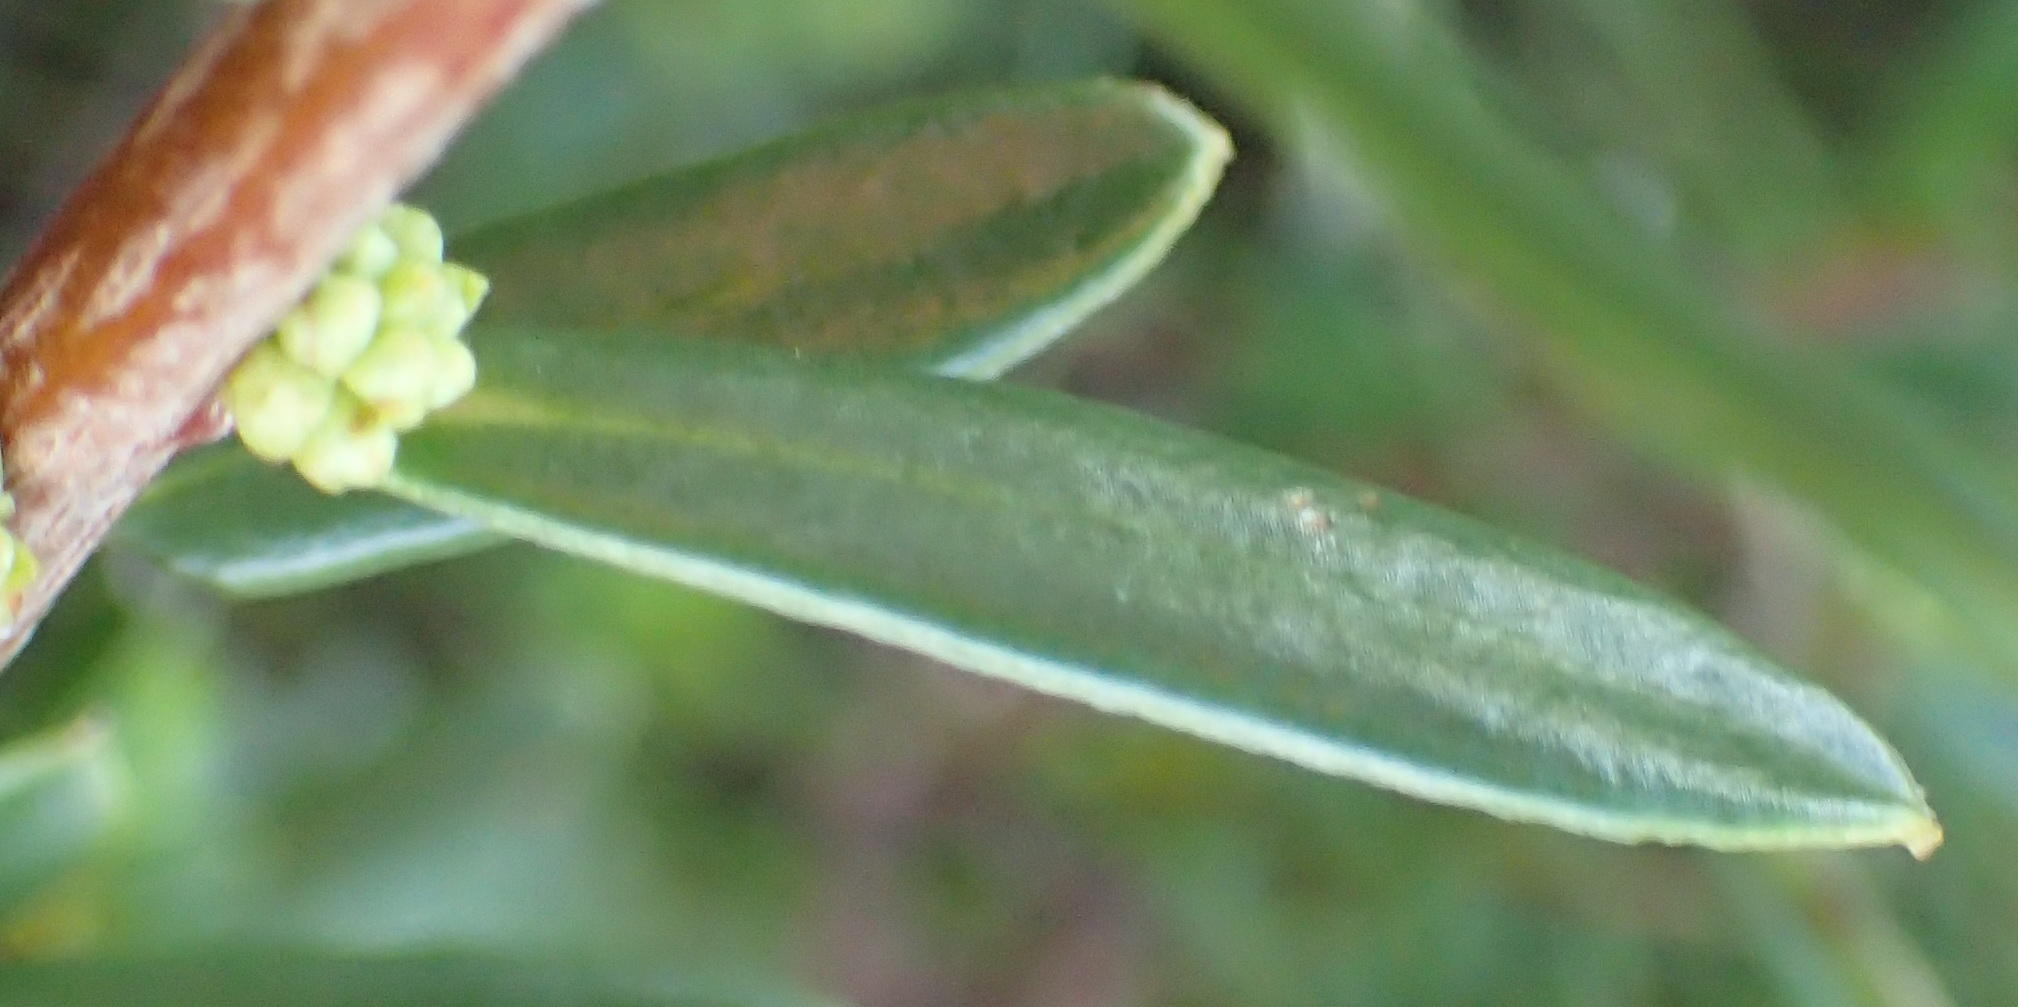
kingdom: Plantae
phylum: Tracheophyta
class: Magnoliopsida
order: Malpighiales
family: Peraceae
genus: Clutia
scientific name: Clutia laxa
